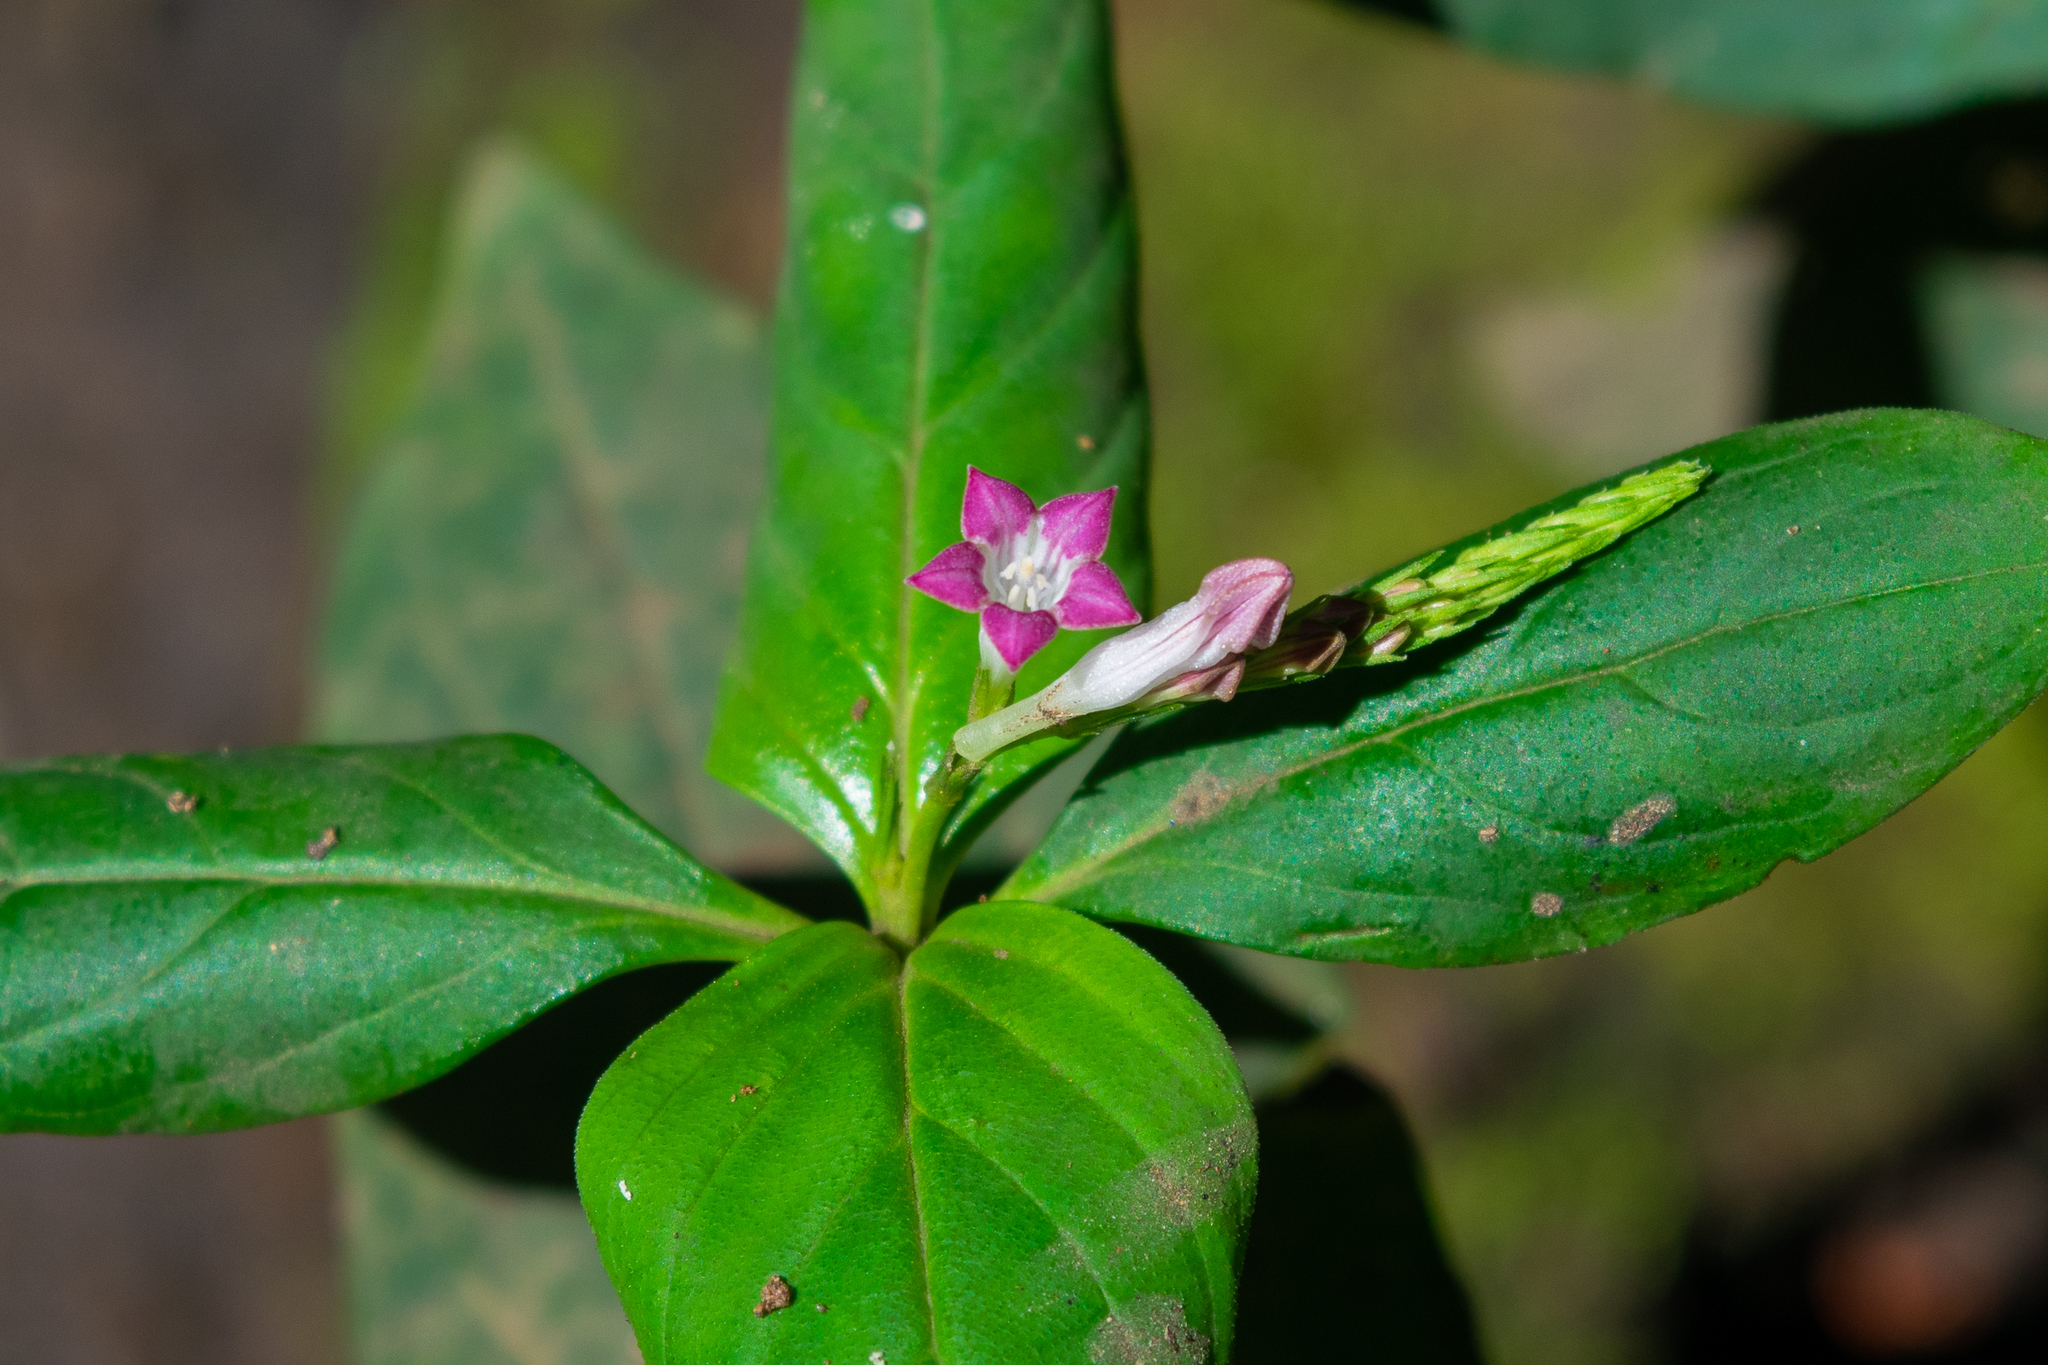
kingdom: Plantae
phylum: Tracheophyta
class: Magnoliopsida
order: Gentianales
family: Loganiaceae
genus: Spigelia
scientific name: Spigelia hamellioides
